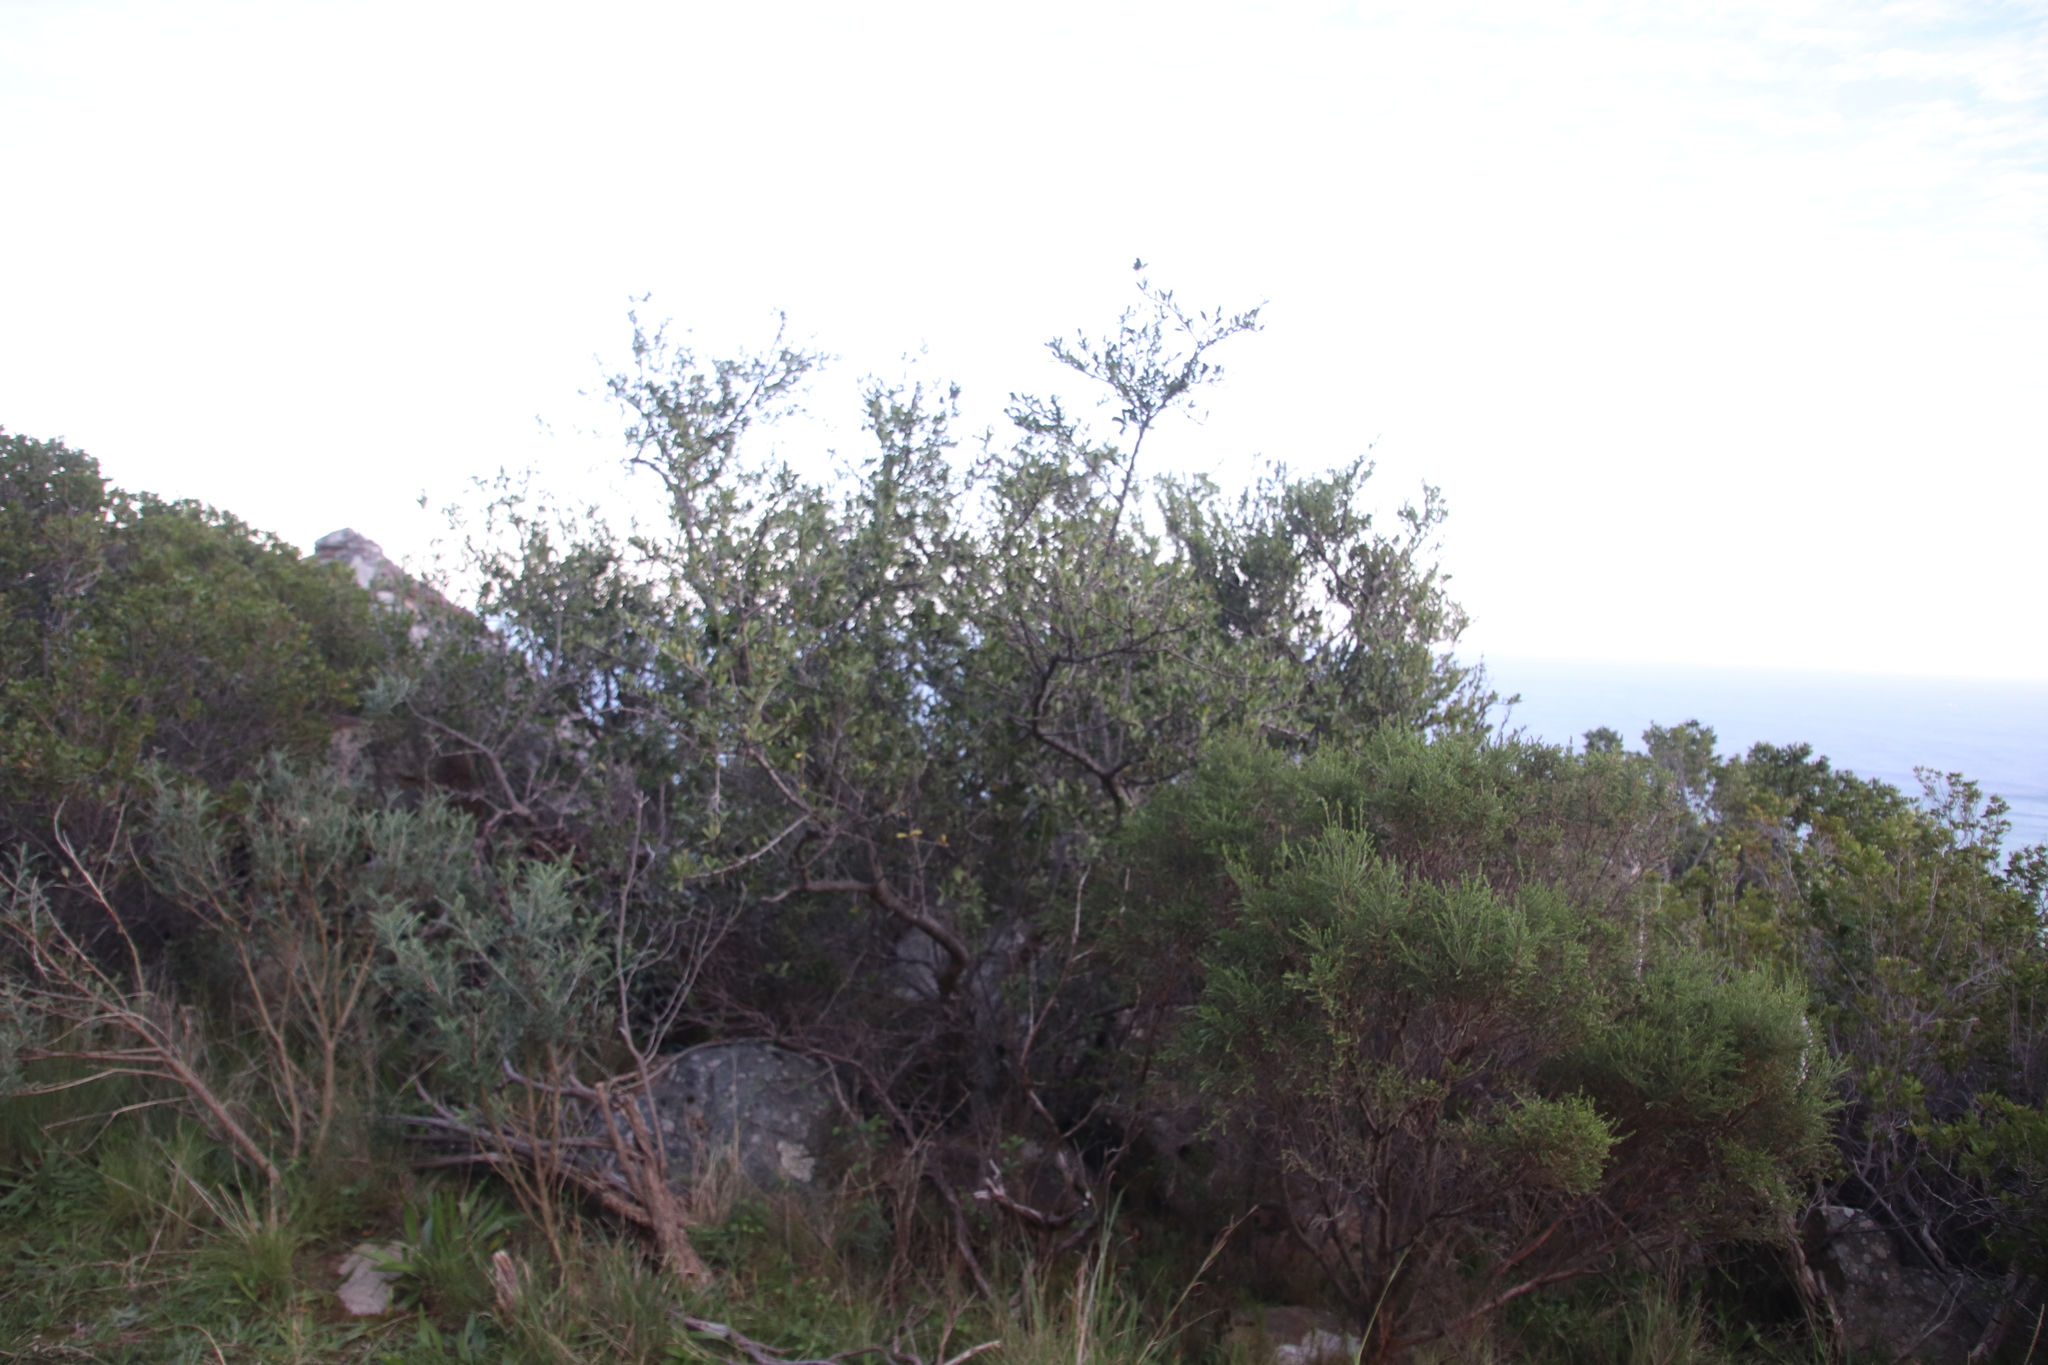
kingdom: Plantae
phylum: Tracheophyta
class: Magnoliopsida
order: Celastrales
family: Celastraceae
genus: Gymnosporia
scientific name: Gymnosporia buxifolia
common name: Common spike-thorn
